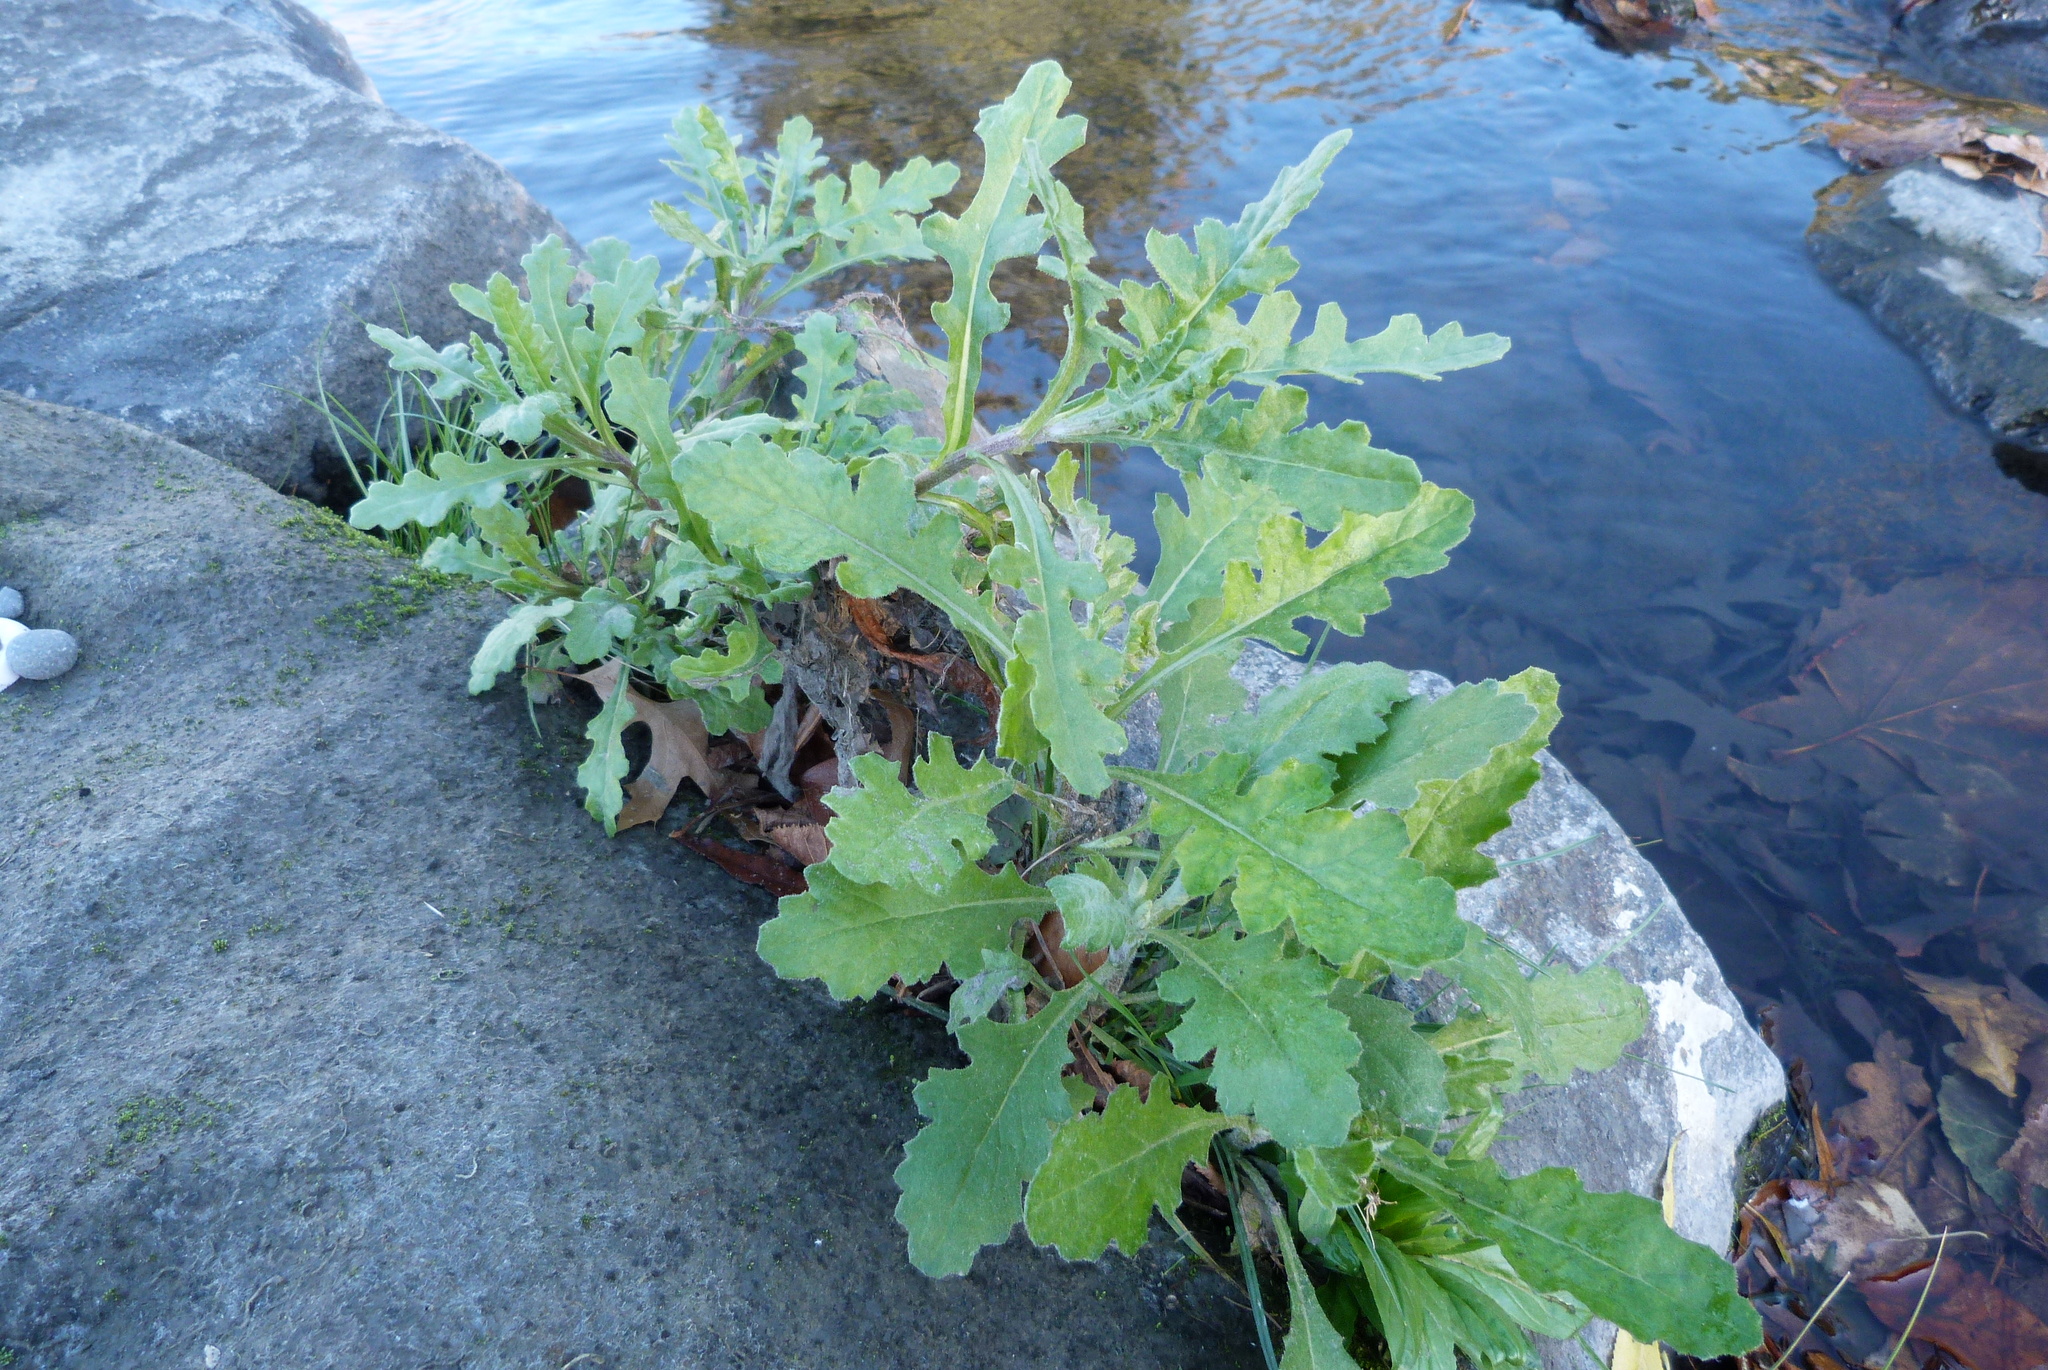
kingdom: Plantae
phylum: Tracheophyta
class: Magnoliopsida
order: Asterales
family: Asteraceae
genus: Senecio
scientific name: Senecio glomeratus
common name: Cutleaf burnweed
